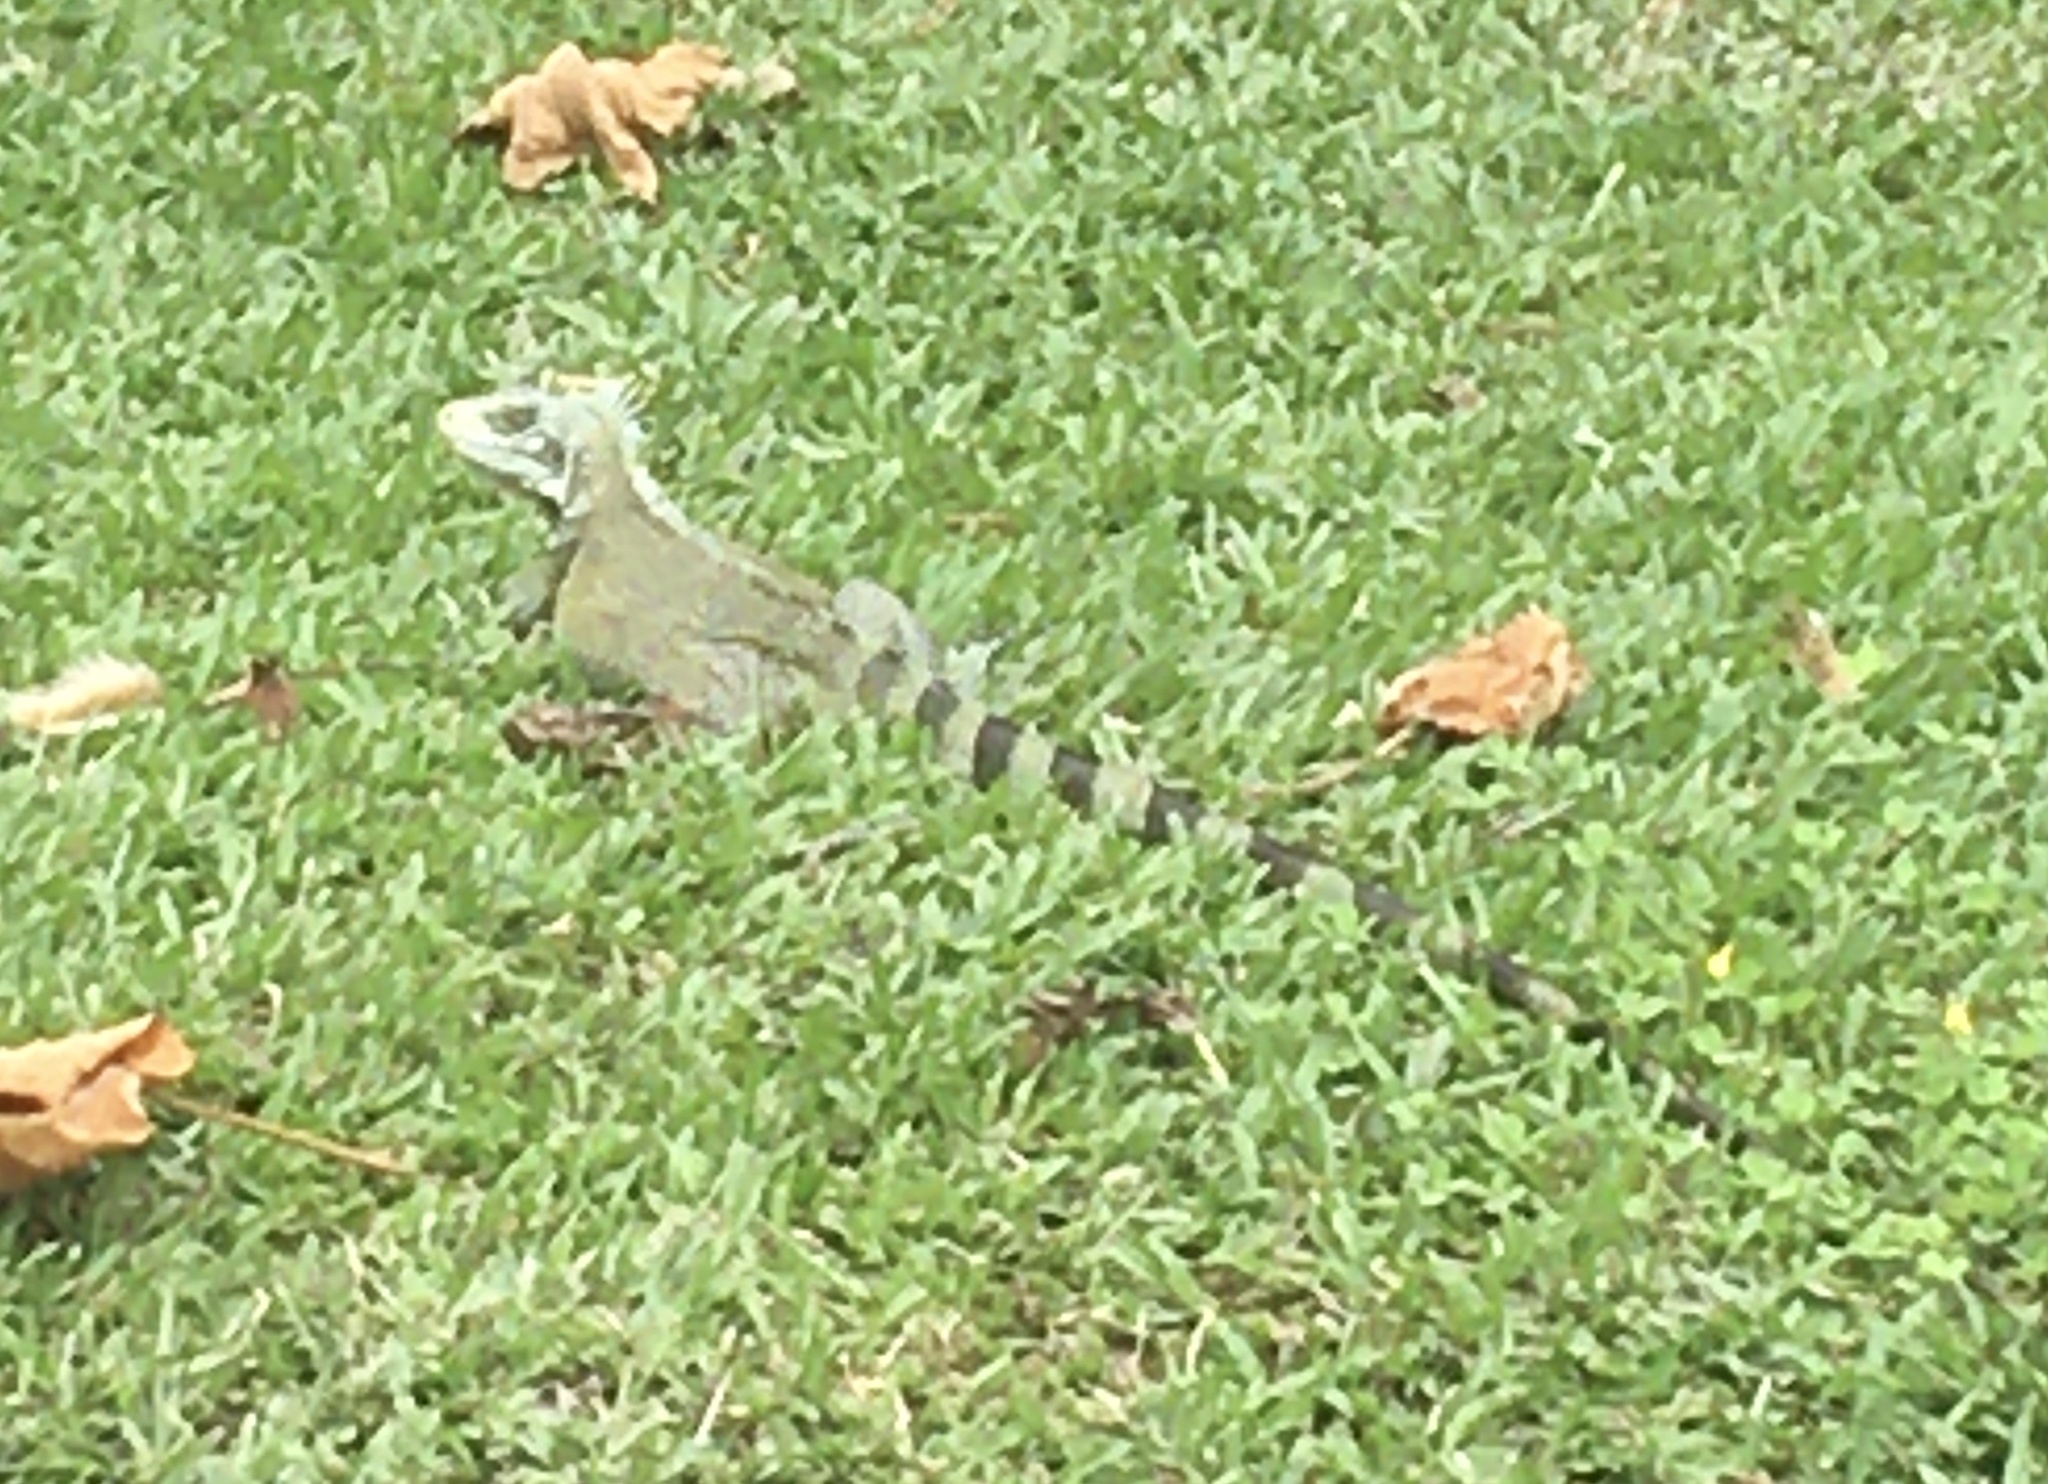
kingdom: Animalia
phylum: Chordata
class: Squamata
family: Iguanidae
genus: Iguana
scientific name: Iguana iguana
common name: Green iguana
